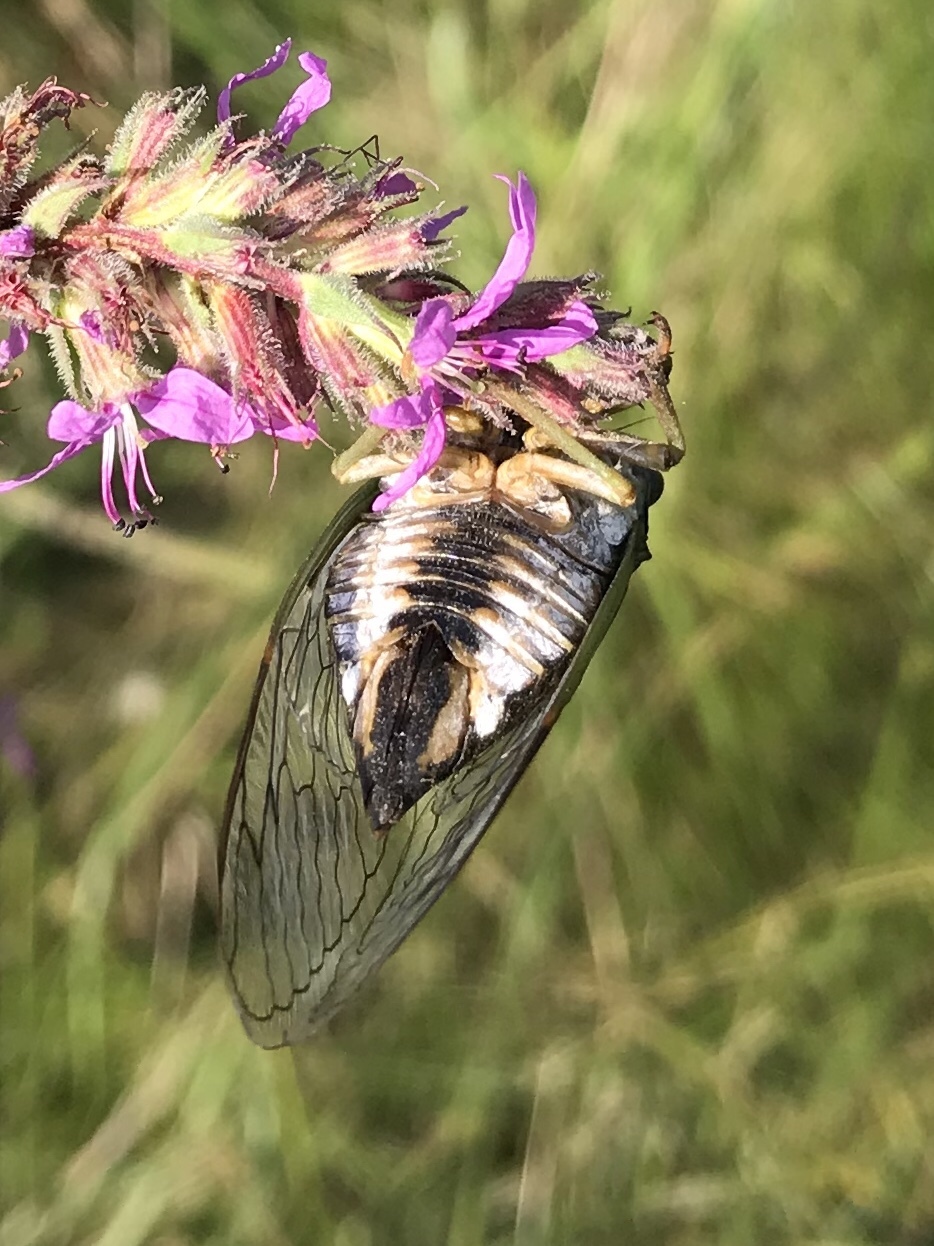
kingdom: Animalia
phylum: Arthropoda
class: Insecta
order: Hemiptera
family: Cicadidae
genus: Neotibicen
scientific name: Neotibicen canicularis
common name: God-day cicada
